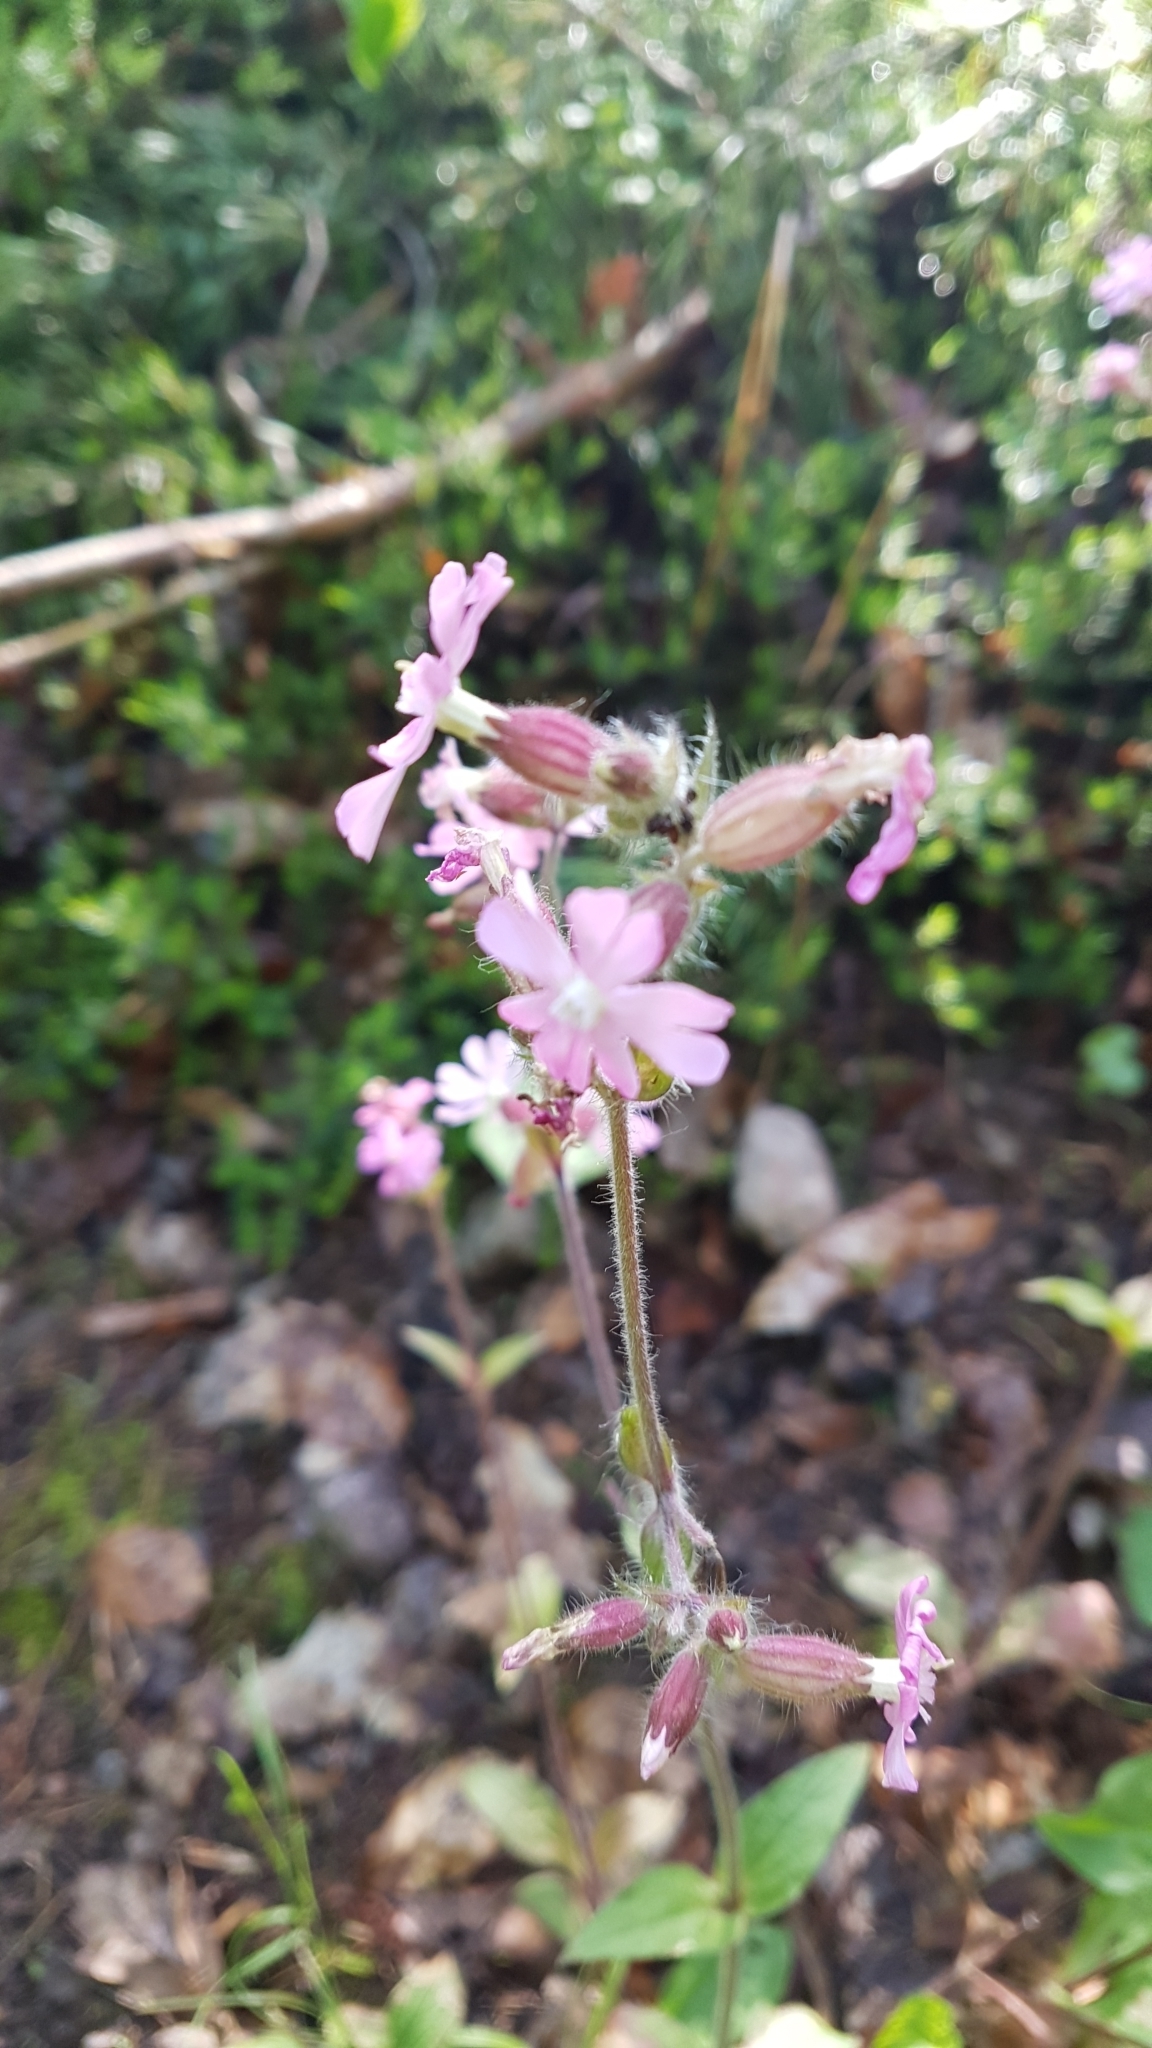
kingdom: Plantae
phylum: Tracheophyta
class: Magnoliopsida
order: Caryophyllales
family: Caryophyllaceae
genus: Silene
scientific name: Silene dioica
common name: Red campion
